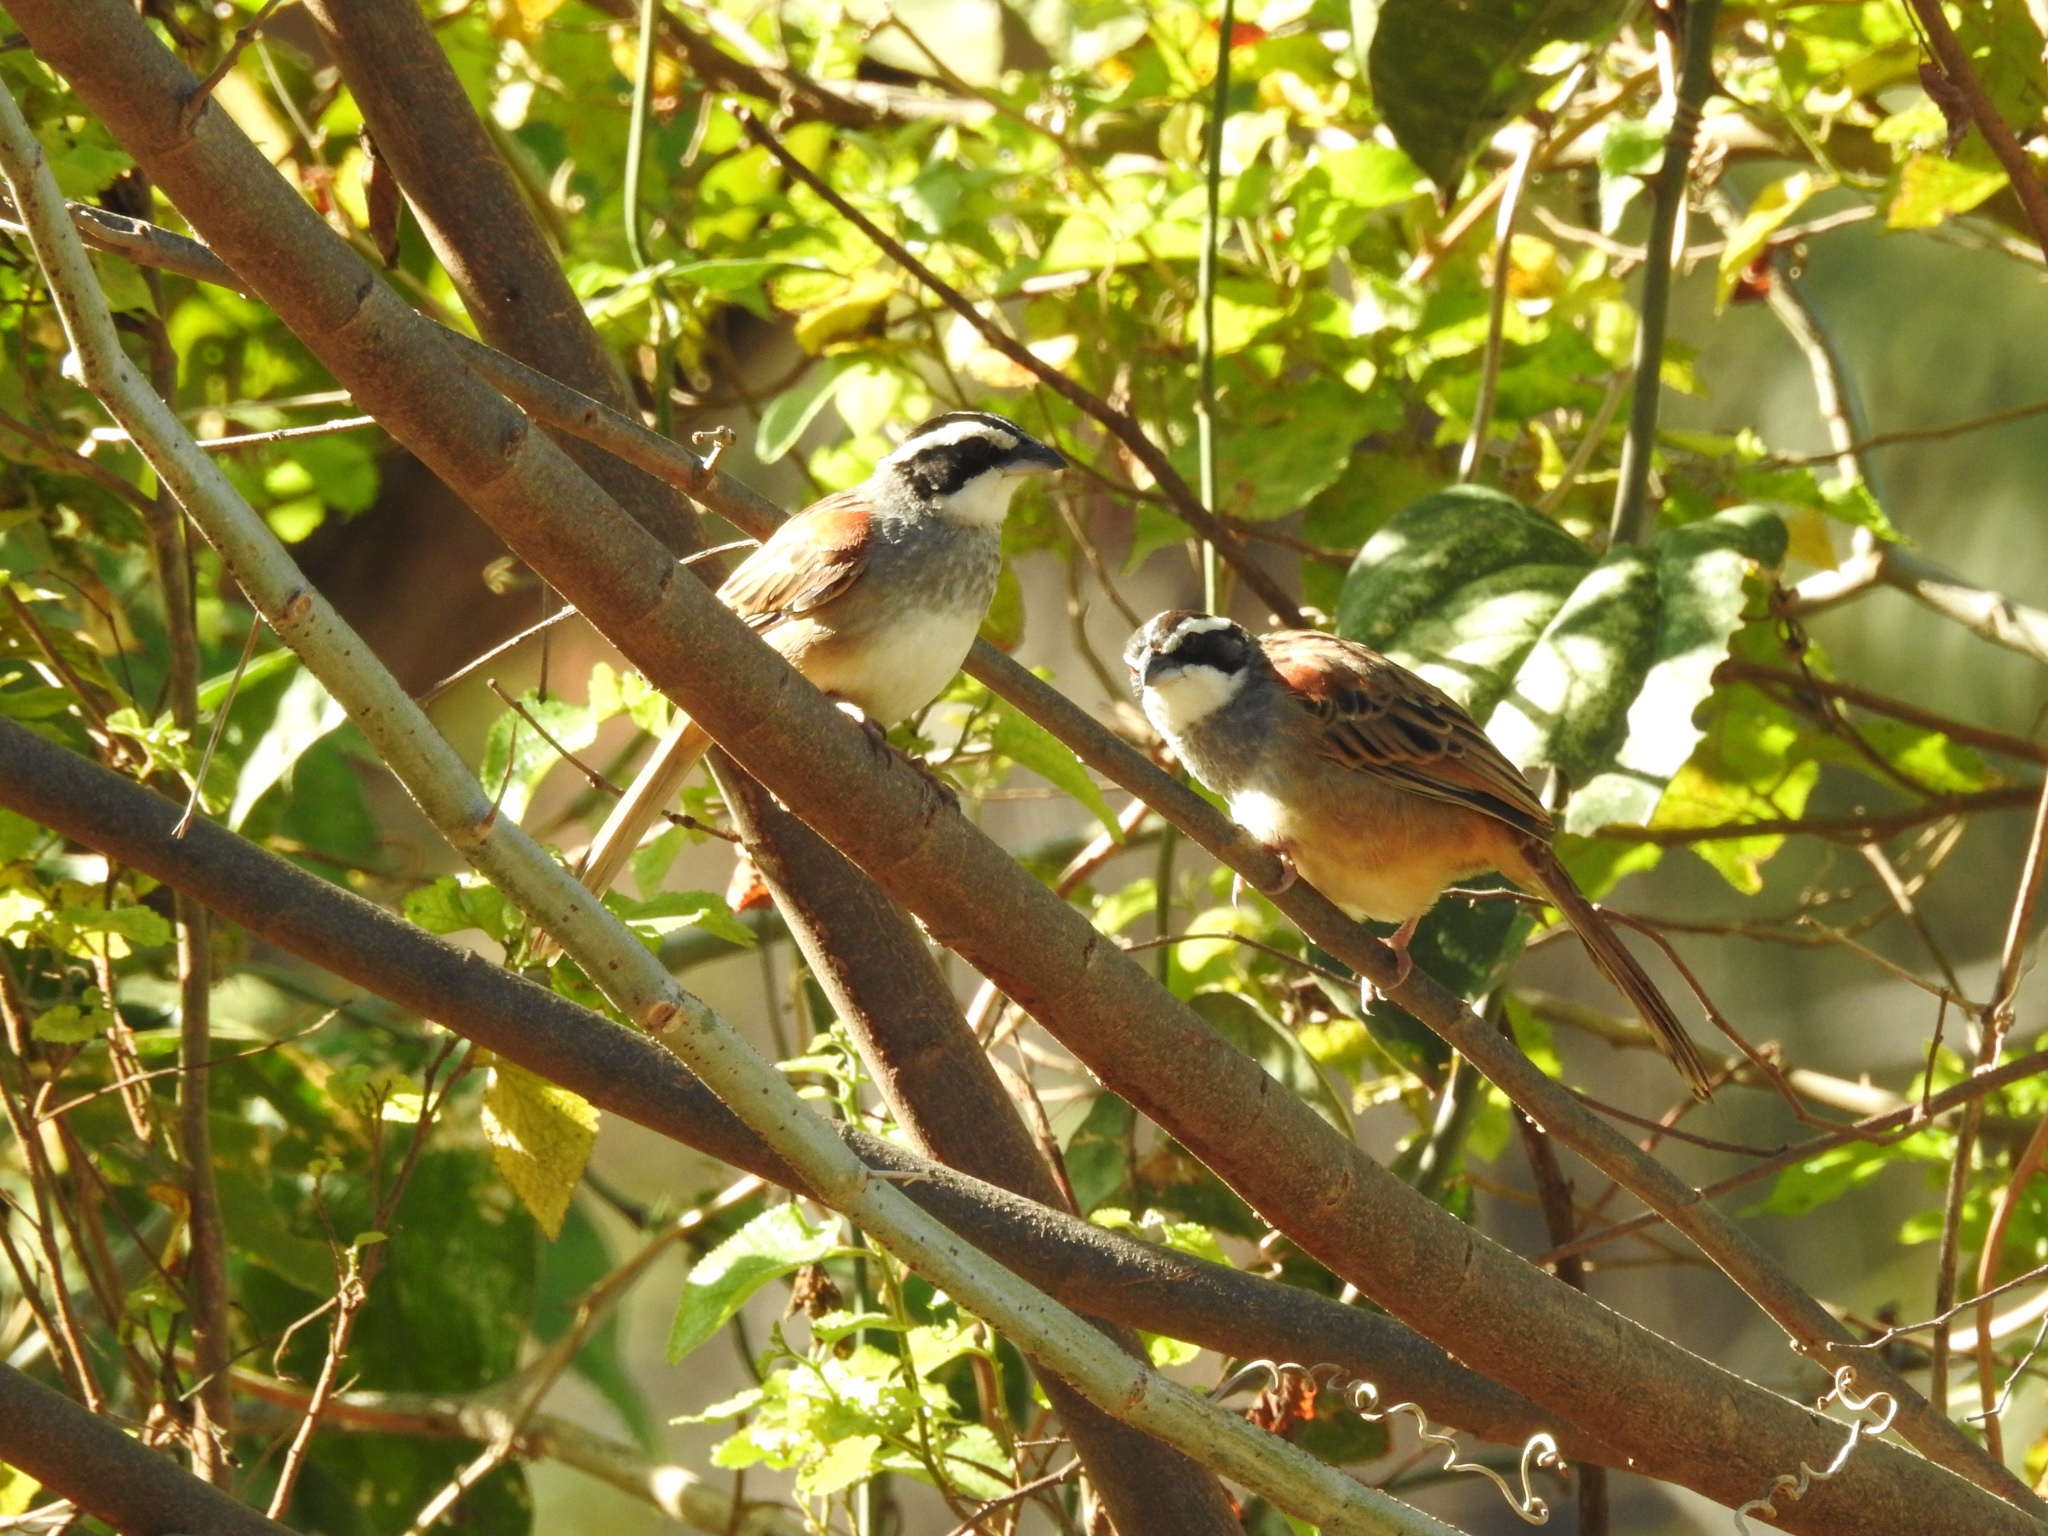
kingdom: Animalia
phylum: Chordata
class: Aves
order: Passeriformes
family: Passerellidae
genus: Peucaea
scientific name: Peucaea ruficauda
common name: Stripe-headed sparrow
